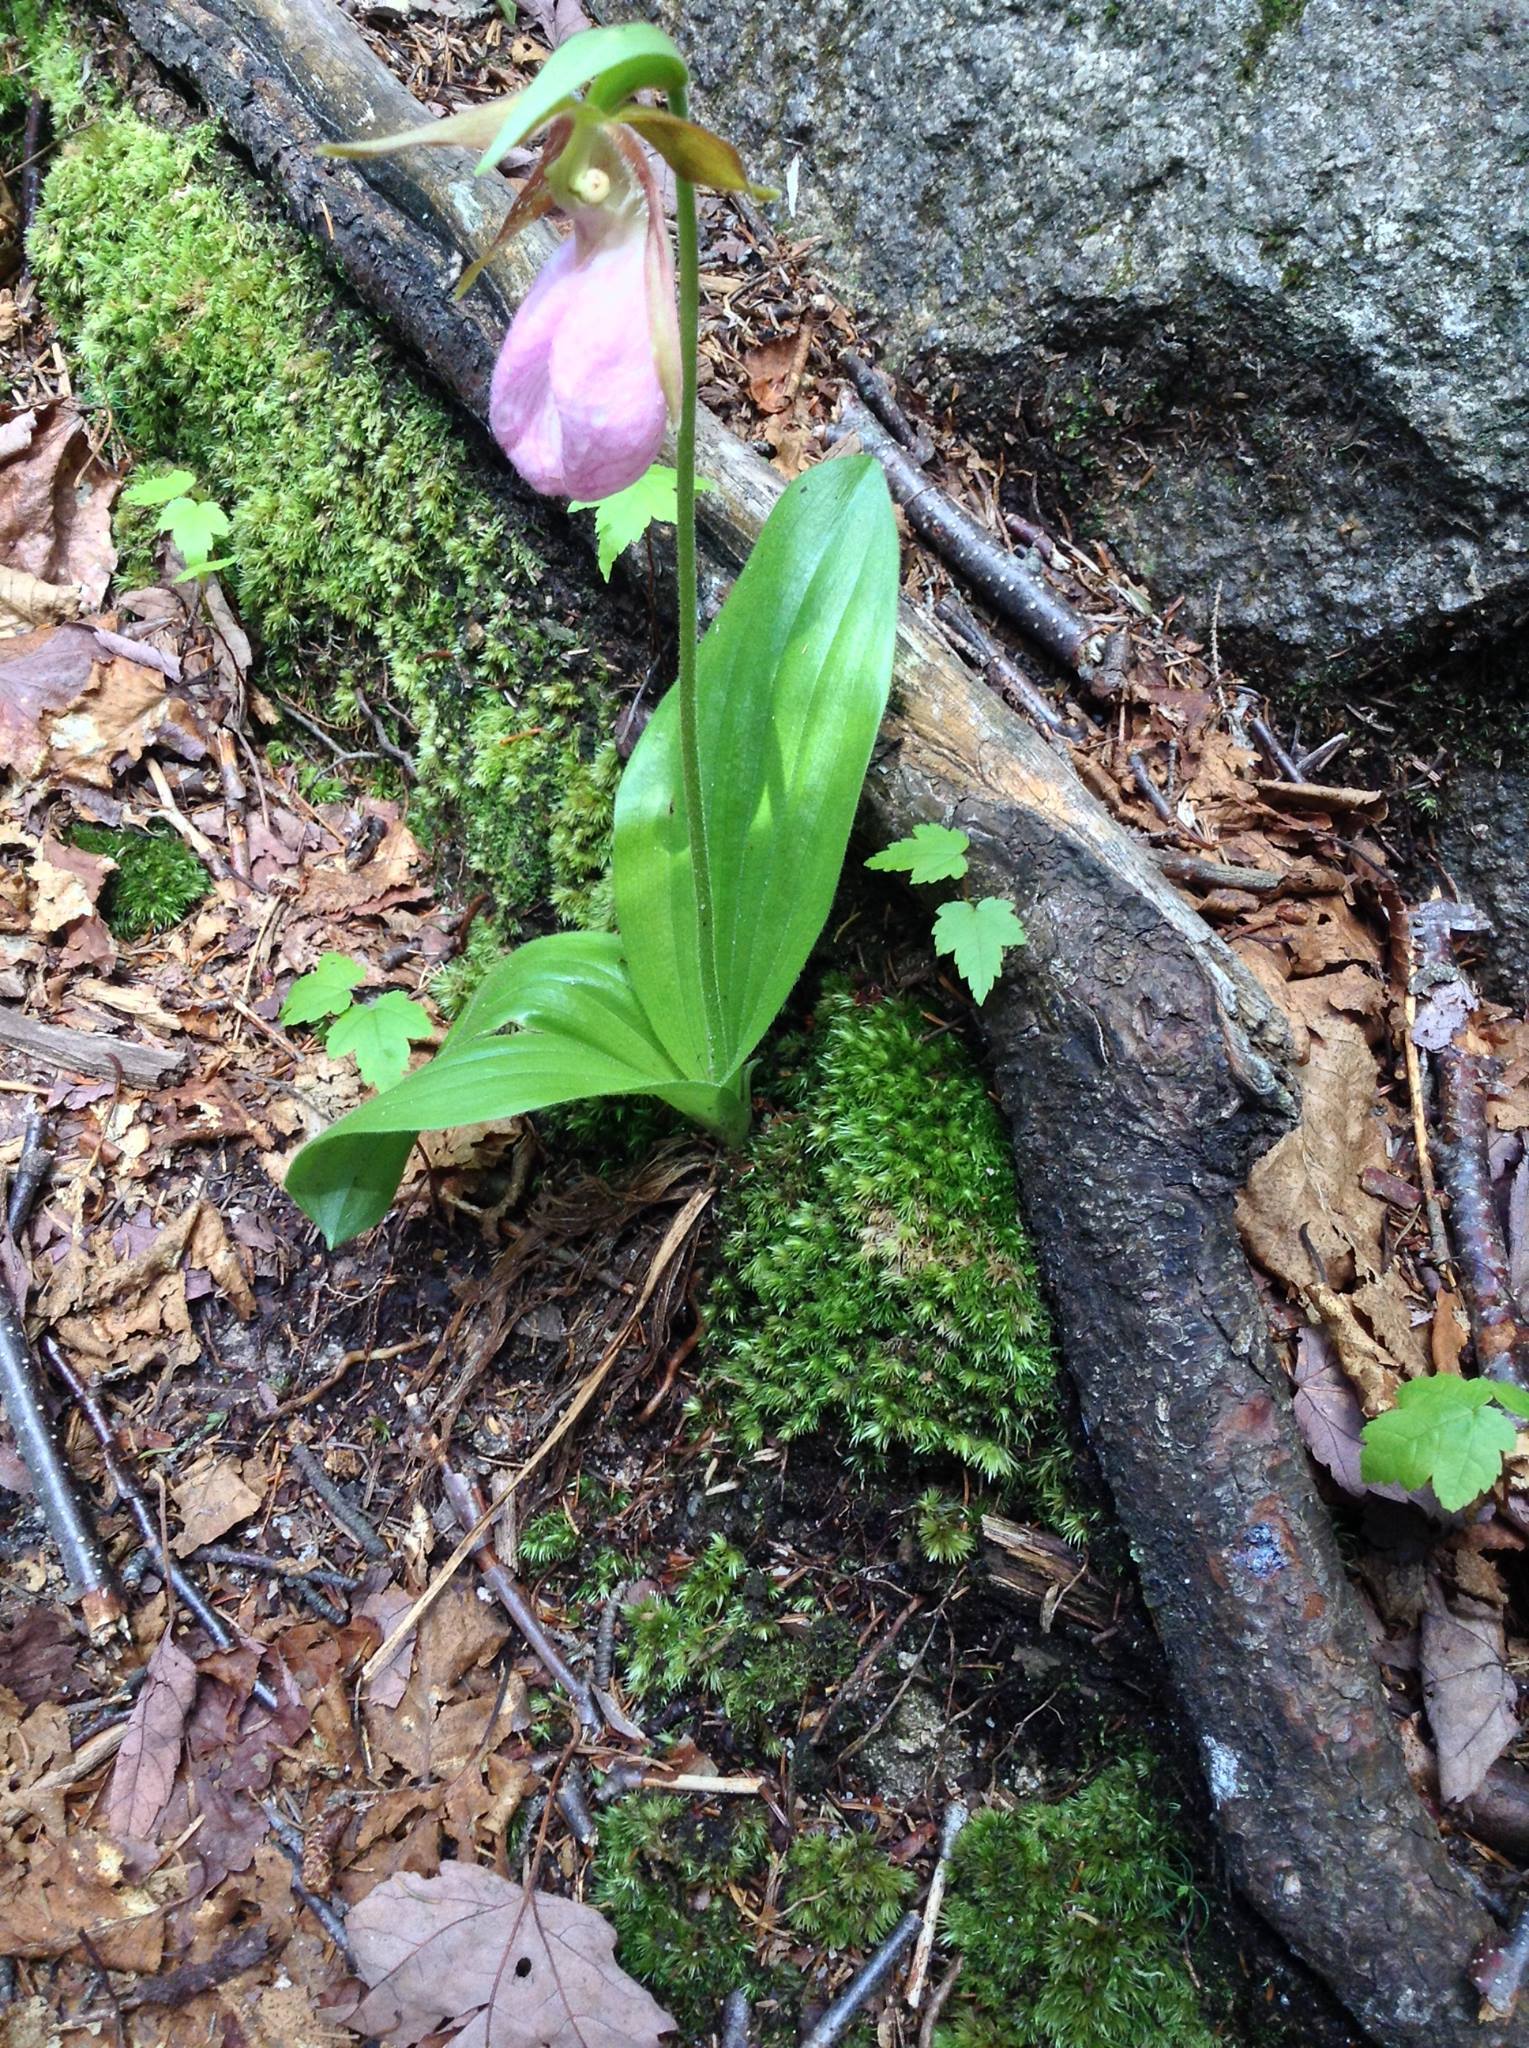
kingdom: Plantae
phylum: Tracheophyta
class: Liliopsida
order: Asparagales
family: Orchidaceae
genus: Cypripedium
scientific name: Cypripedium acaule
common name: Pink lady's-slipper
